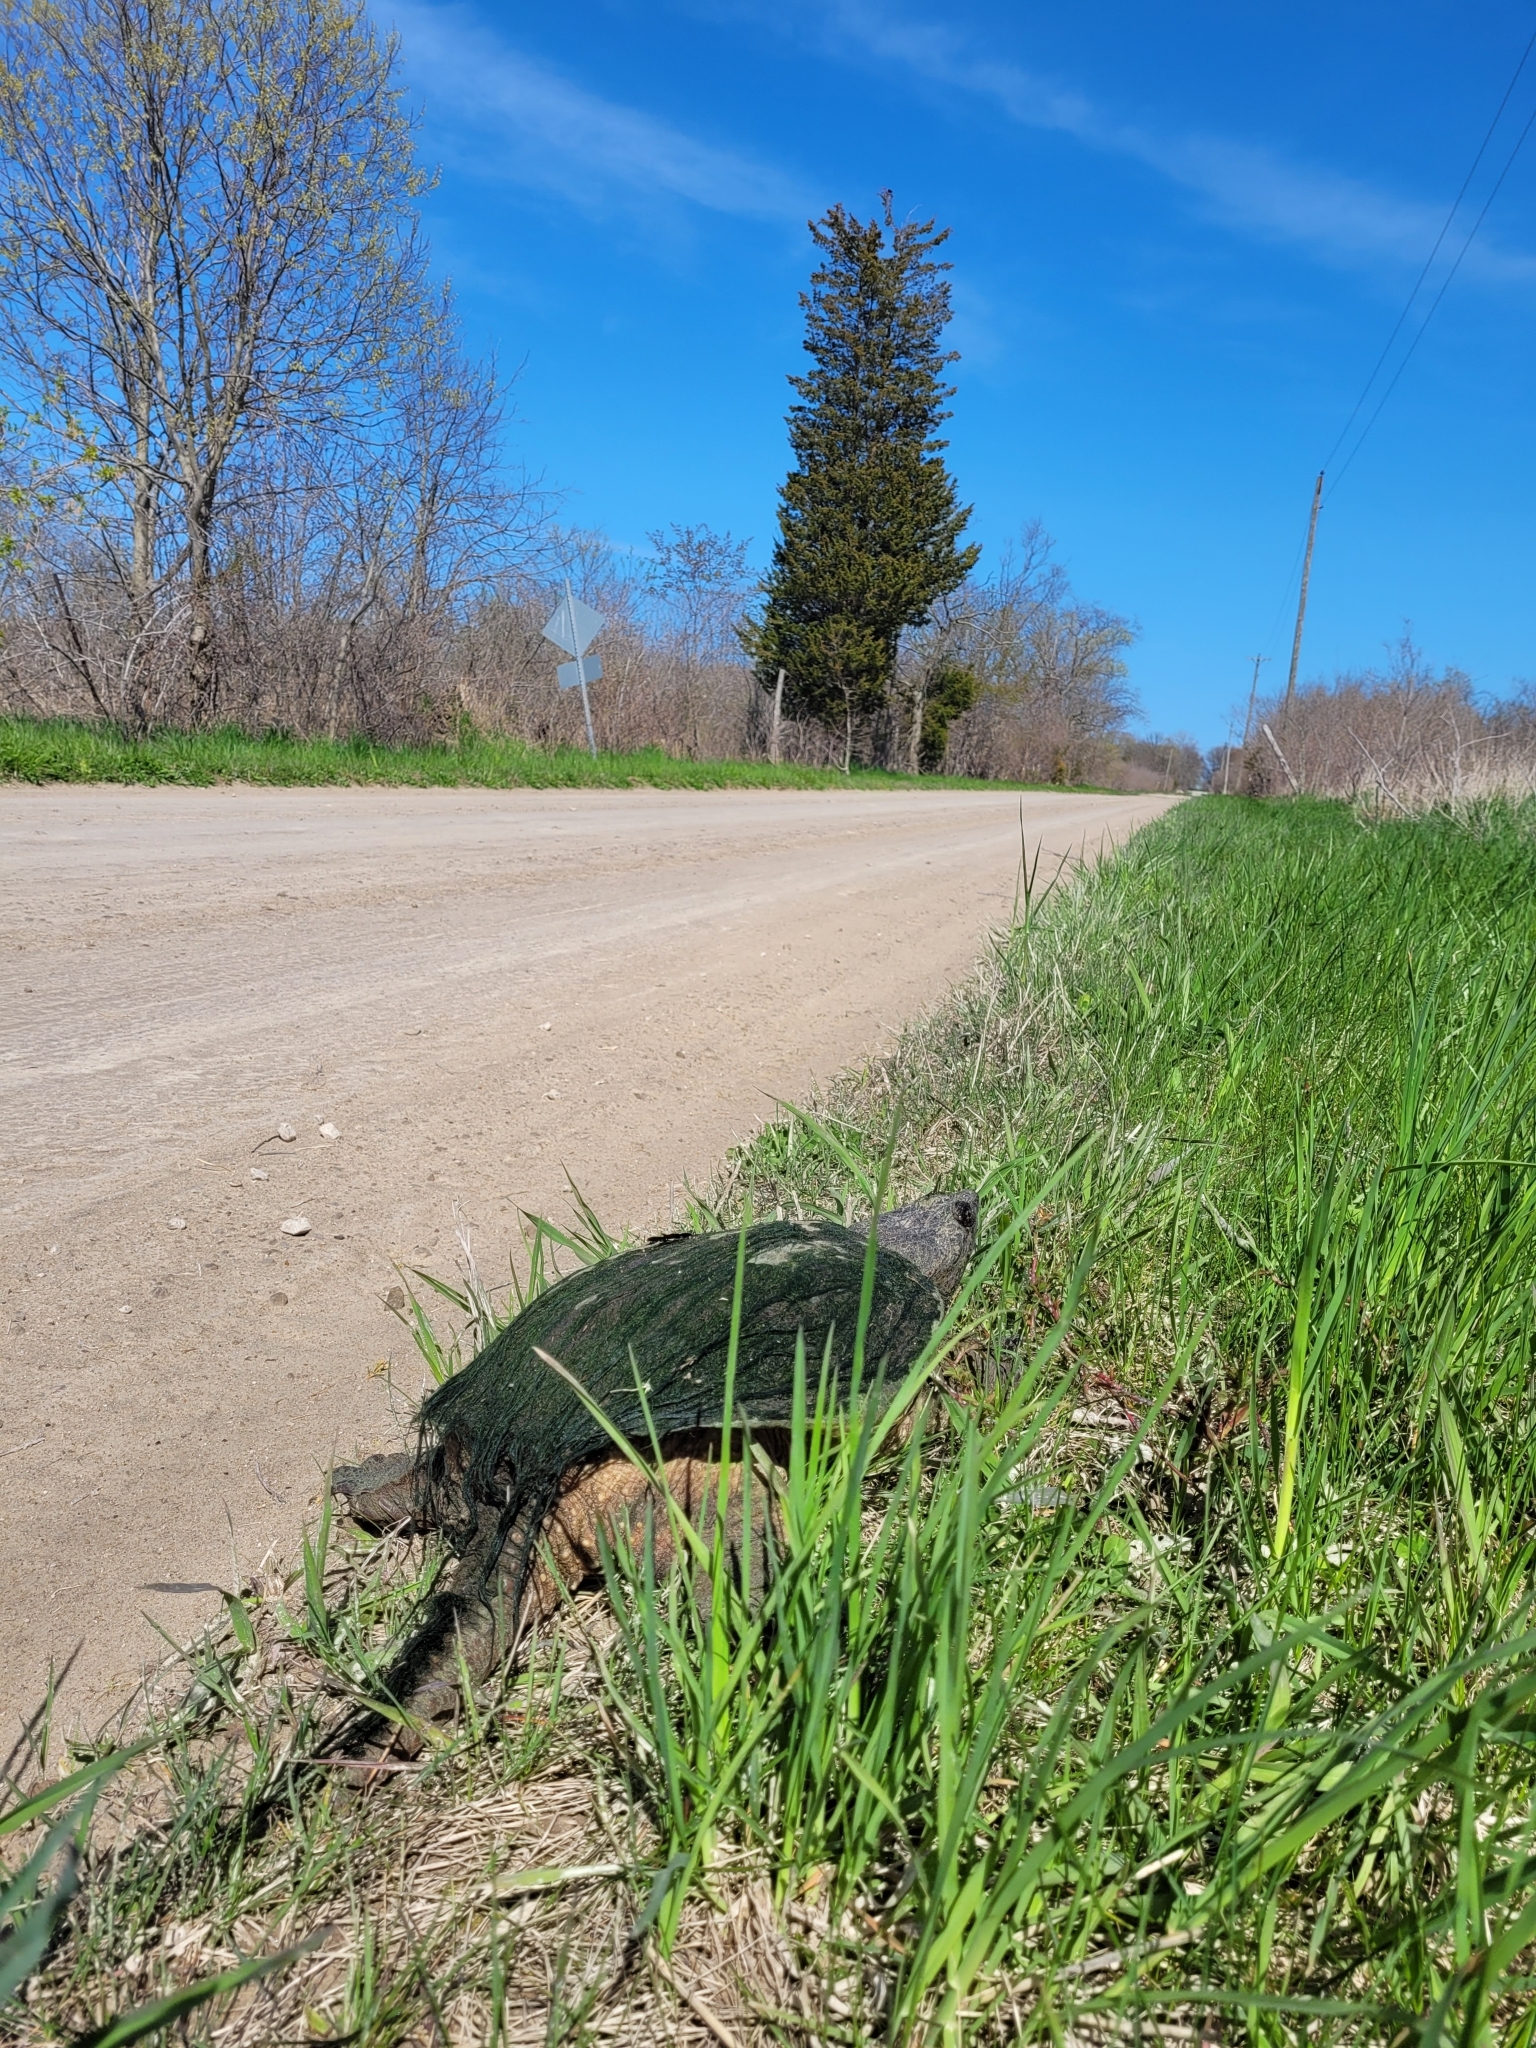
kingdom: Animalia
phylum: Chordata
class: Testudines
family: Chelydridae
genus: Chelydra
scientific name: Chelydra serpentina
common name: Common snapping turtle
